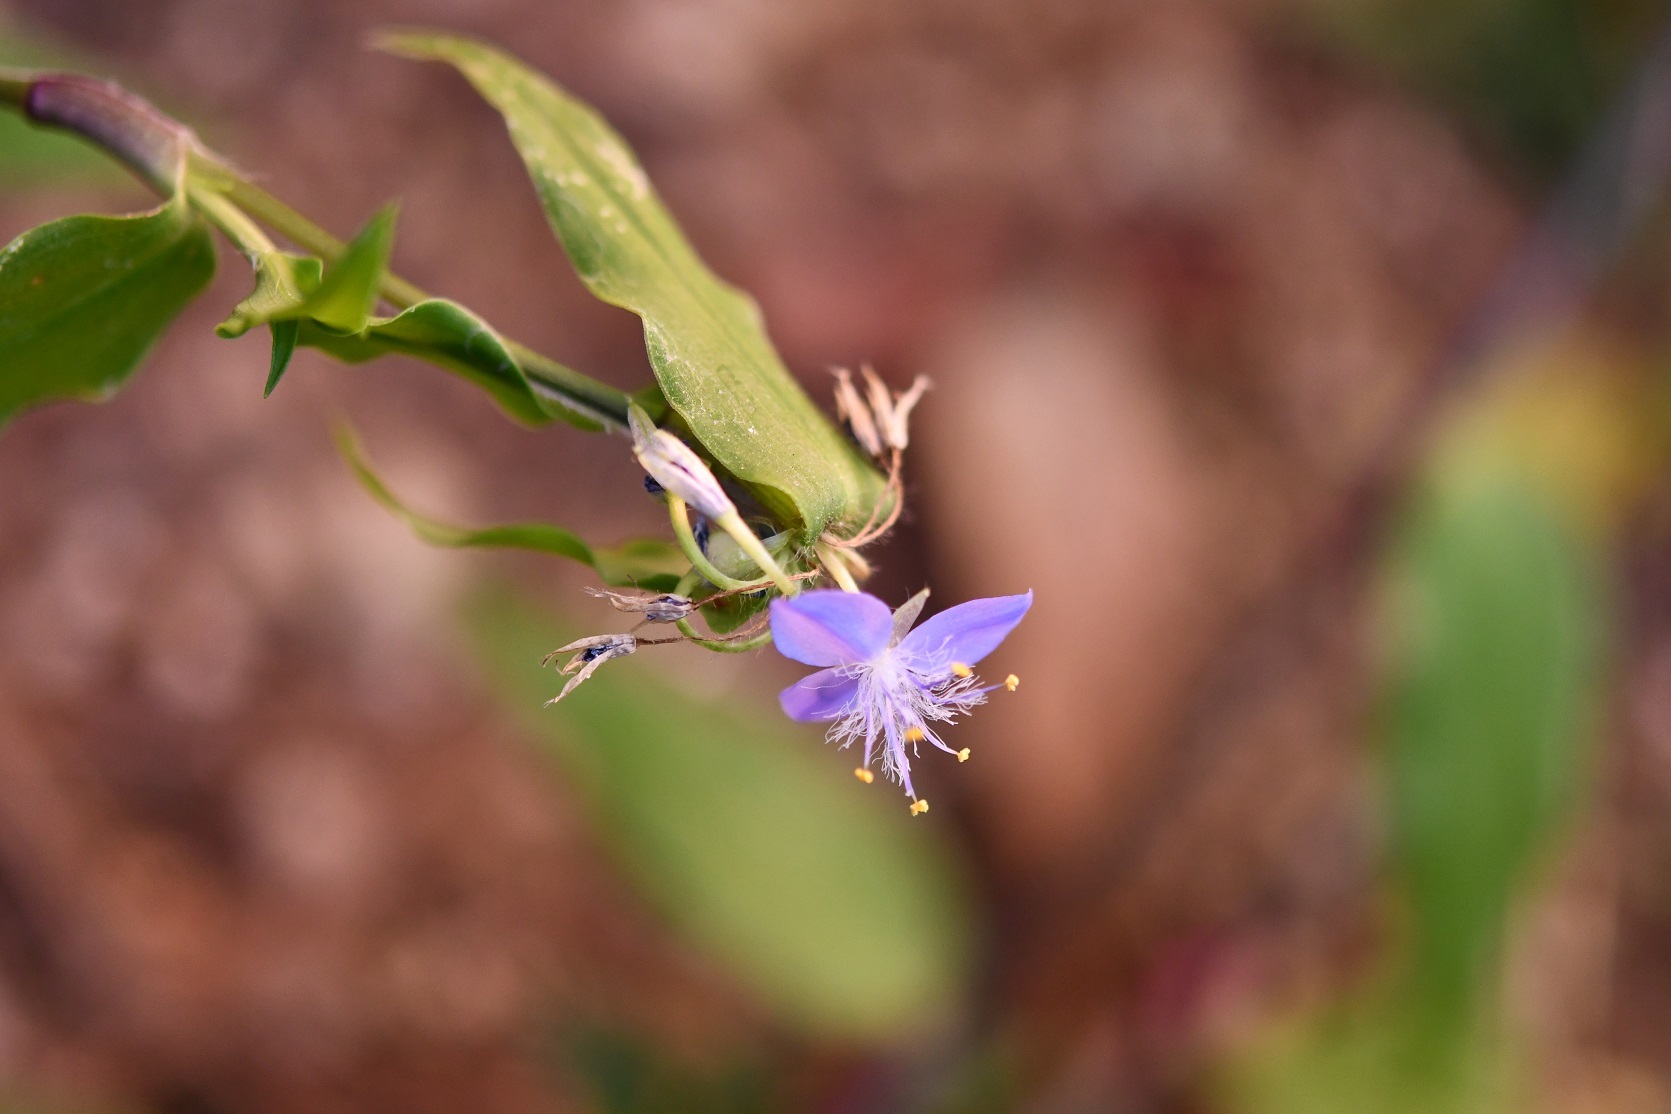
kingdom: Plantae
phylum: Tracheophyta
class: Liliopsida
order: Commelinales
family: Commelinaceae
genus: Elasis
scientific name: Elasis guatemalensis
